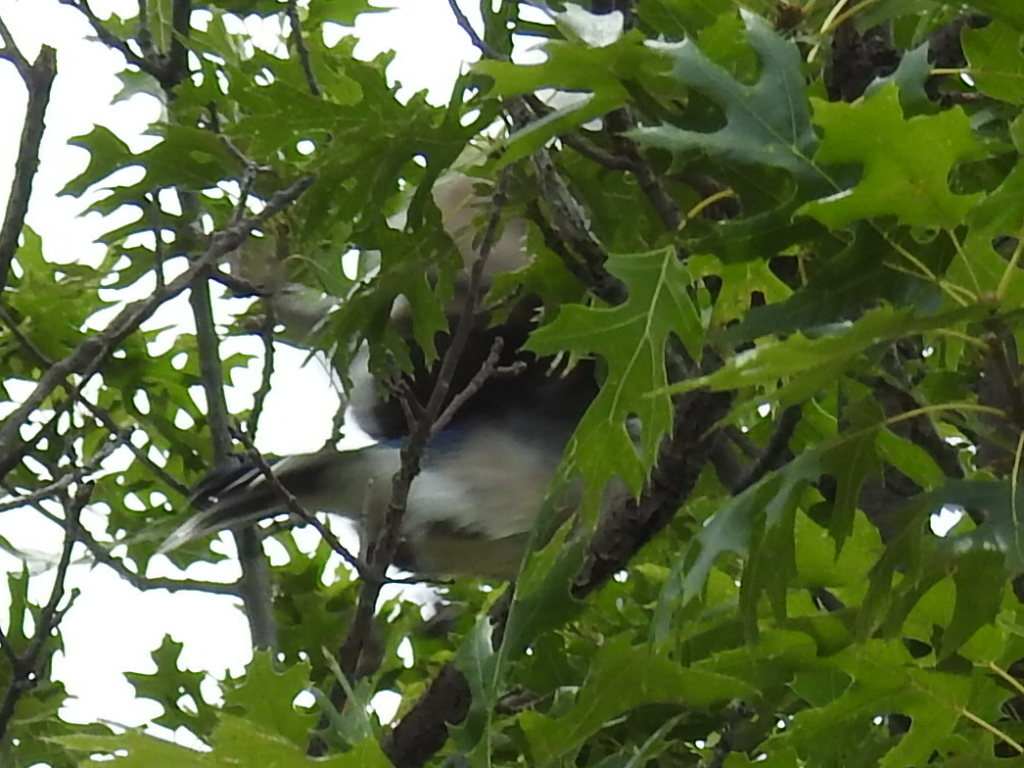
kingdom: Animalia
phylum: Chordata
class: Aves
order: Passeriformes
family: Corvidae
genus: Cyanocitta
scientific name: Cyanocitta cristata
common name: Blue jay
